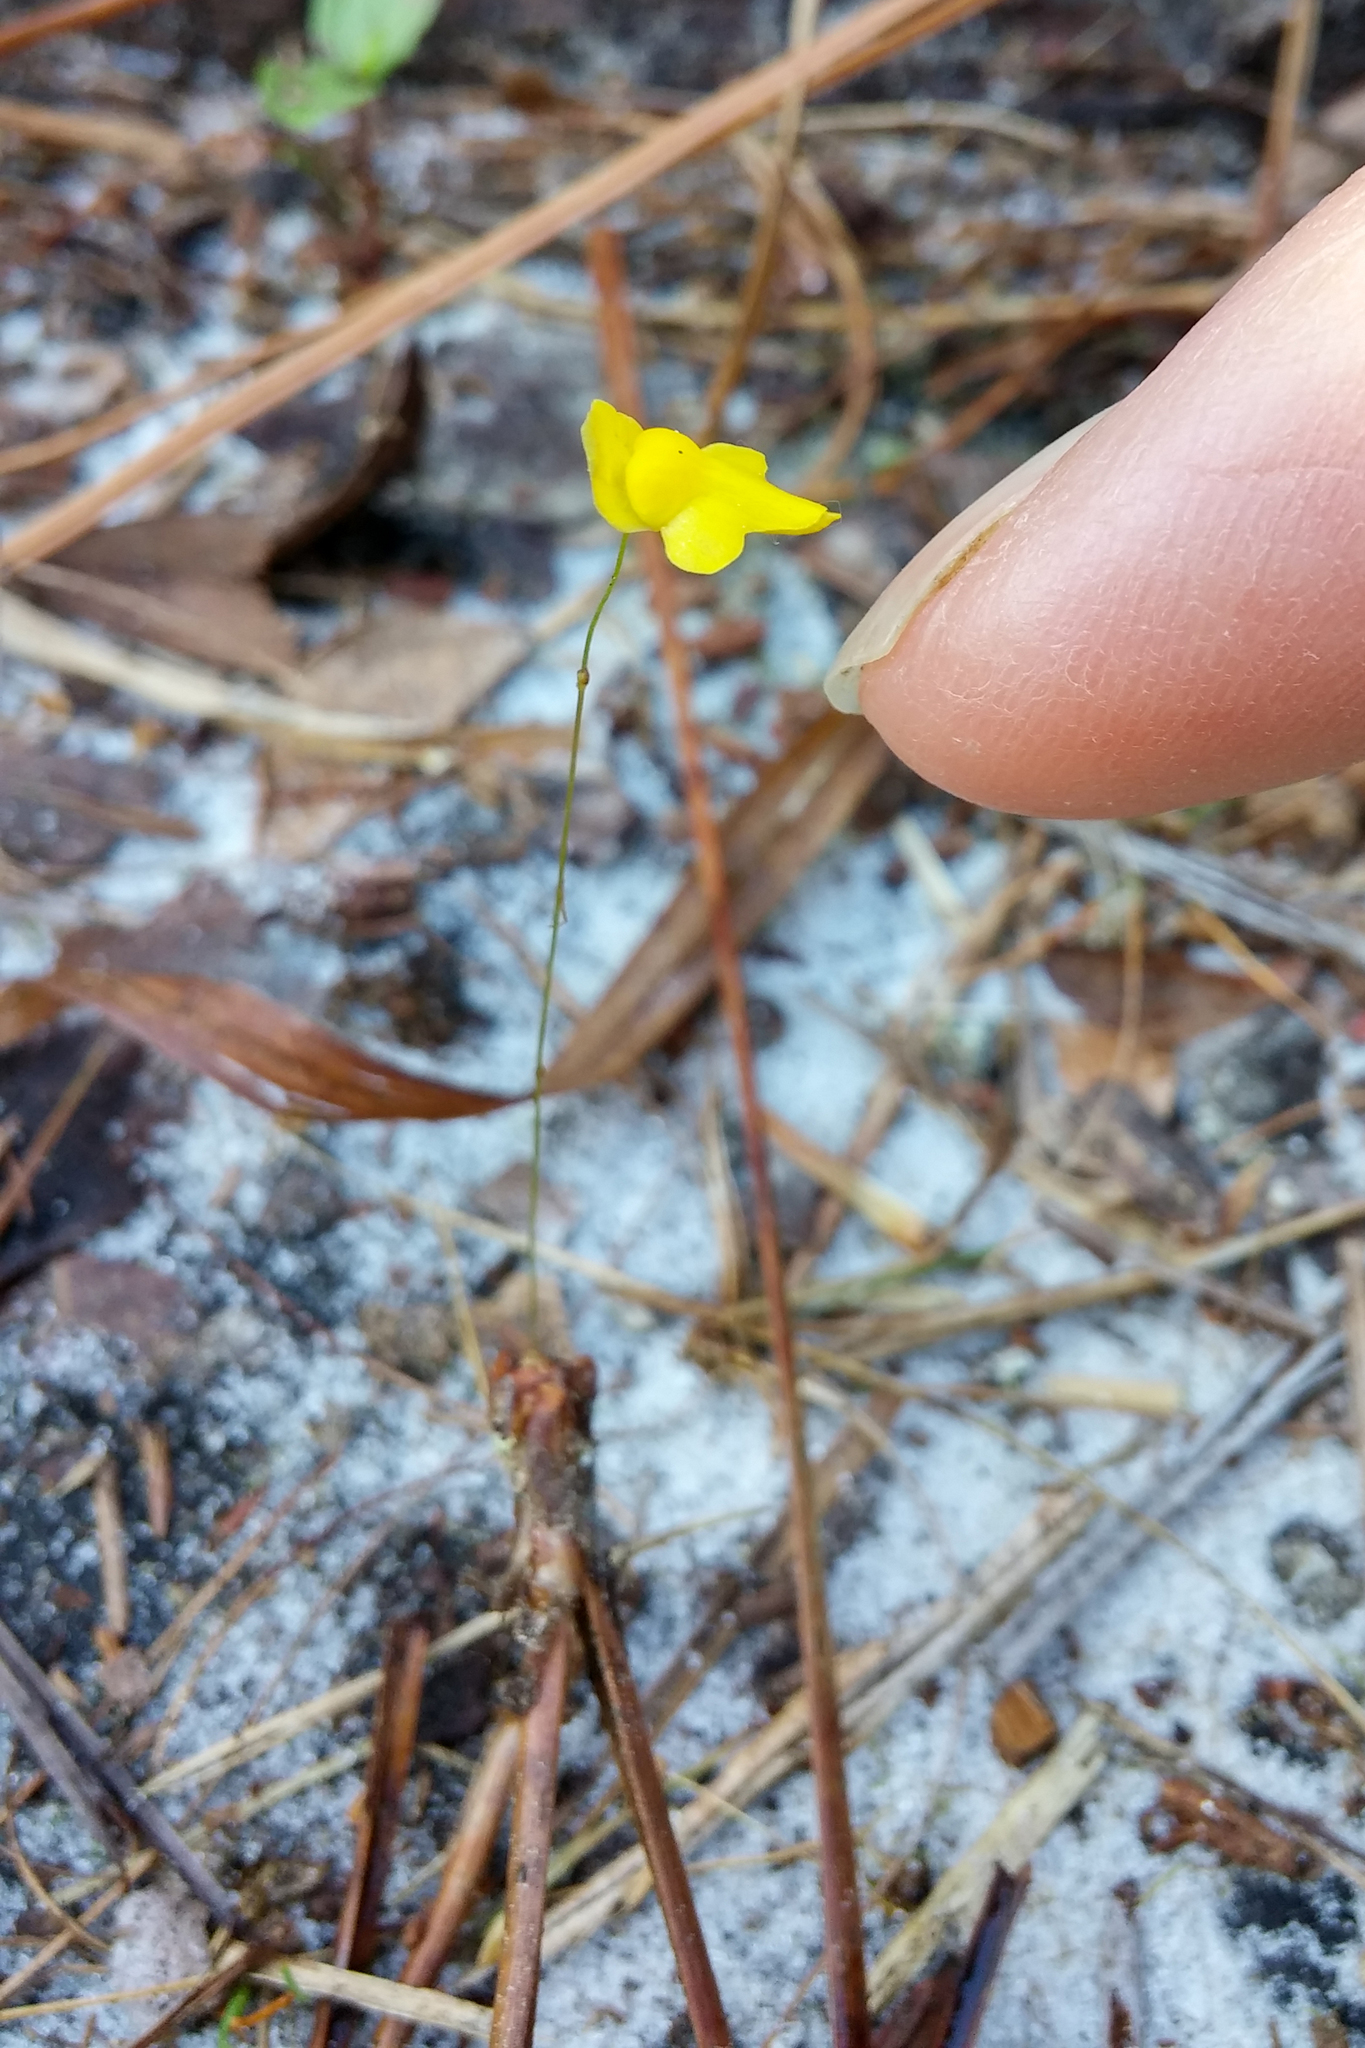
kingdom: Plantae
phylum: Tracheophyta
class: Magnoliopsida
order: Lamiales
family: Lentibulariaceae
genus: Utricularia
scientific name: Utricularia subulata
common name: Tiny bladderwort
